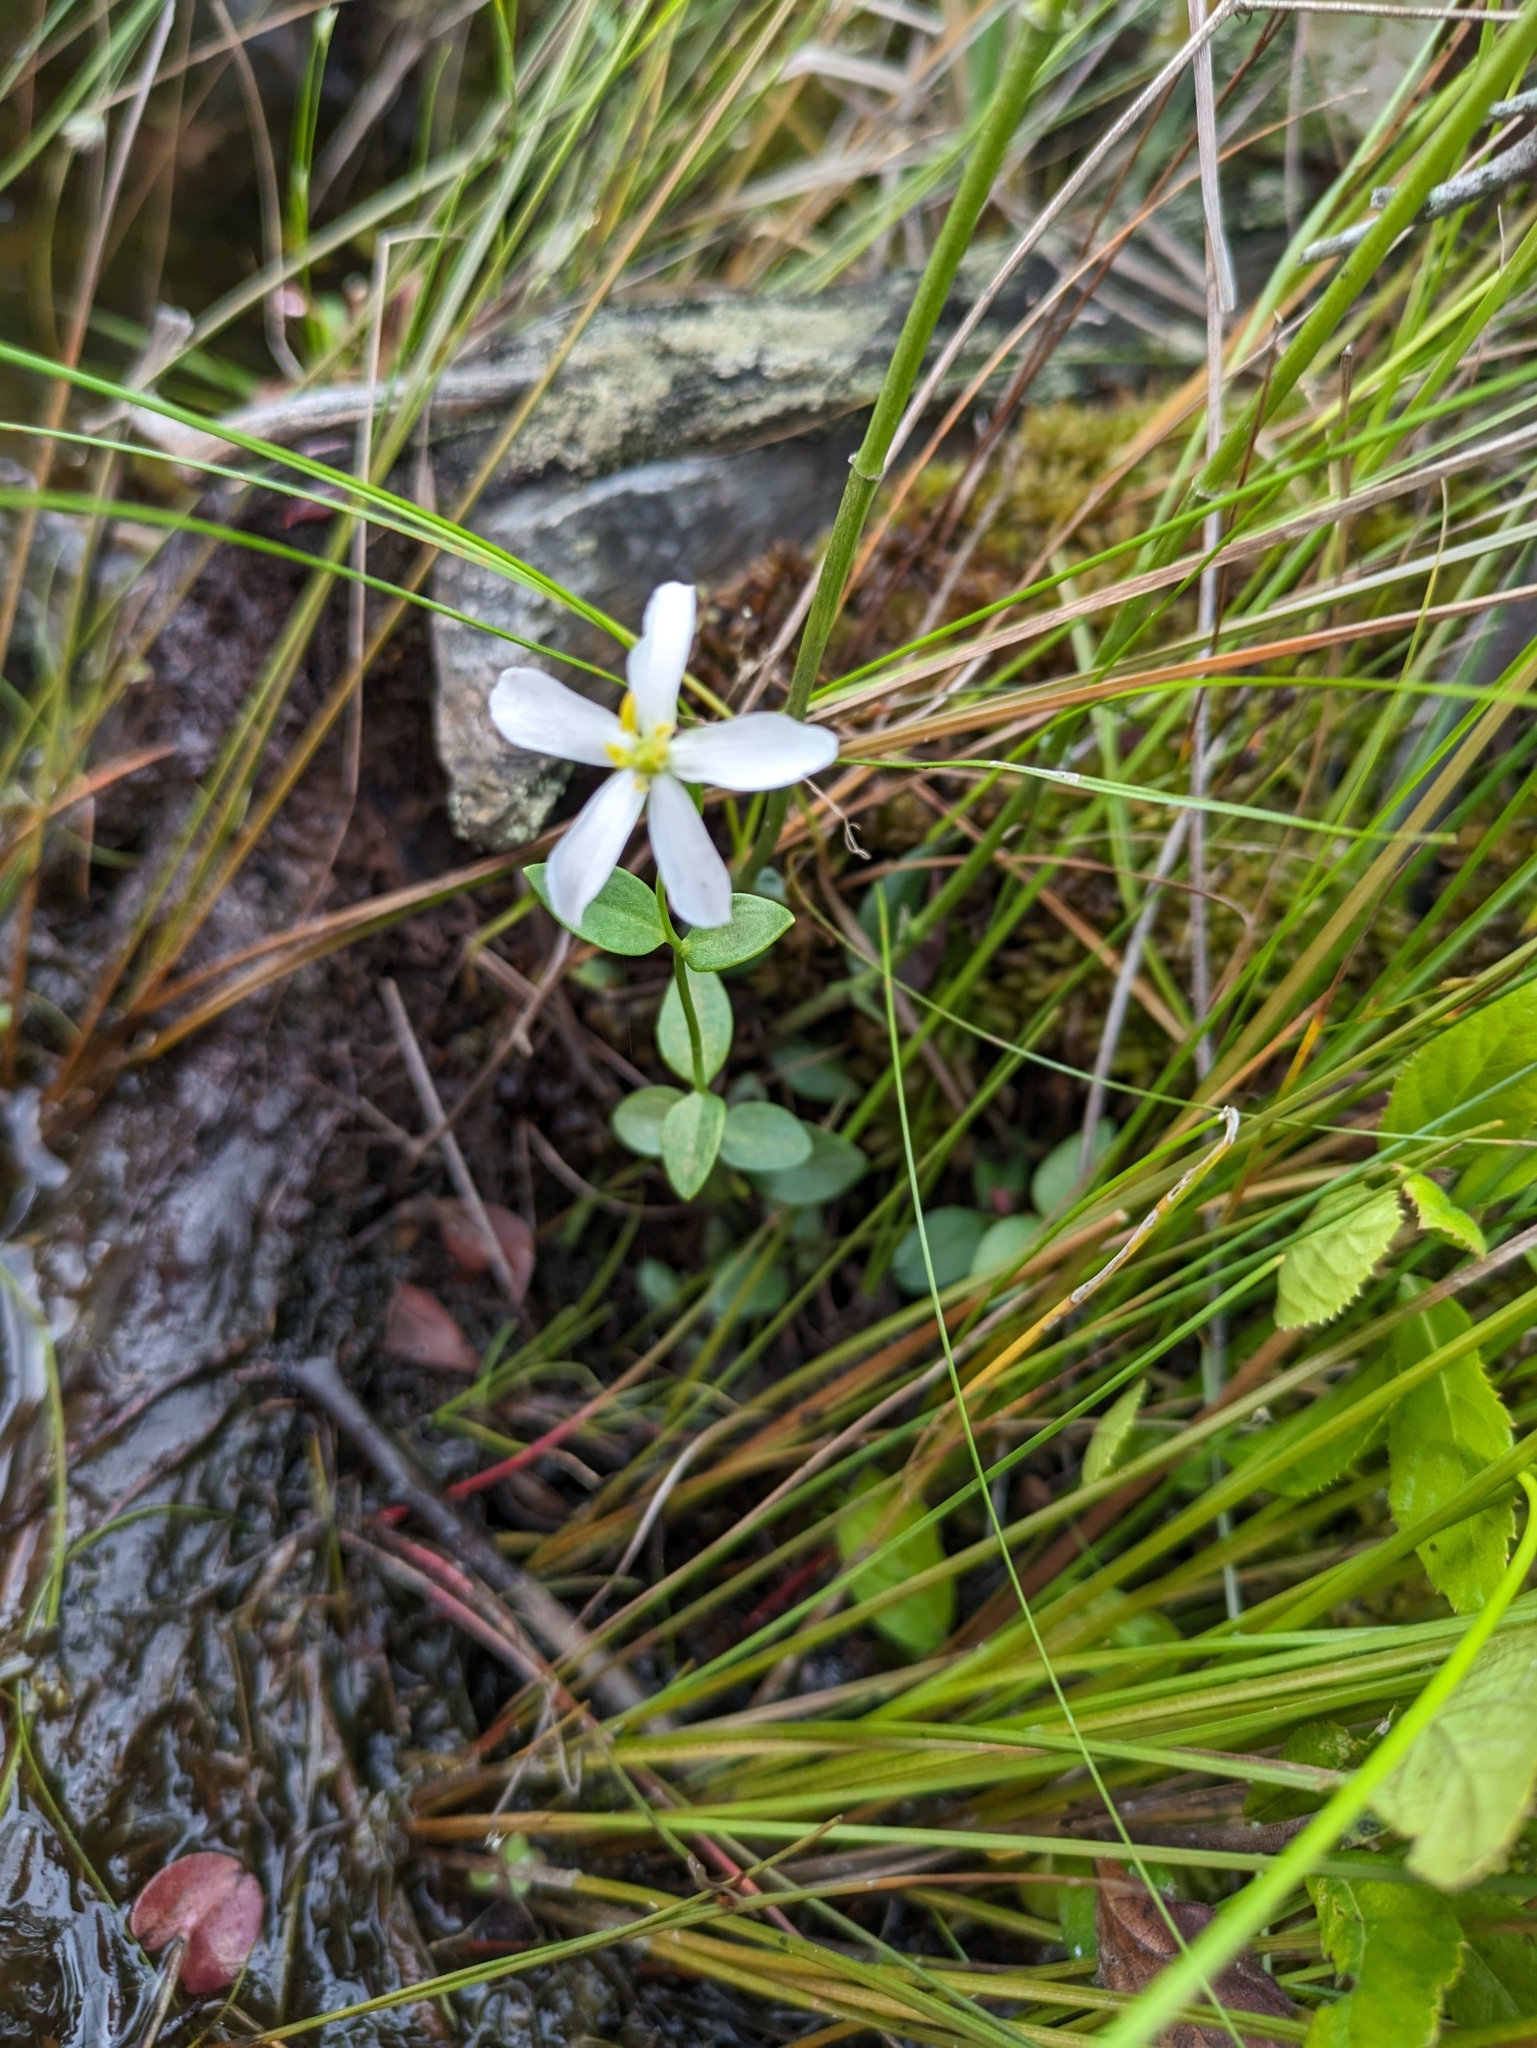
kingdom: Plantae
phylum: Tracheophyta
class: Magnoliopsida
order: Gentianales
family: Gentianaceae
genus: Sabatia
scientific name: Sabatia difformis
